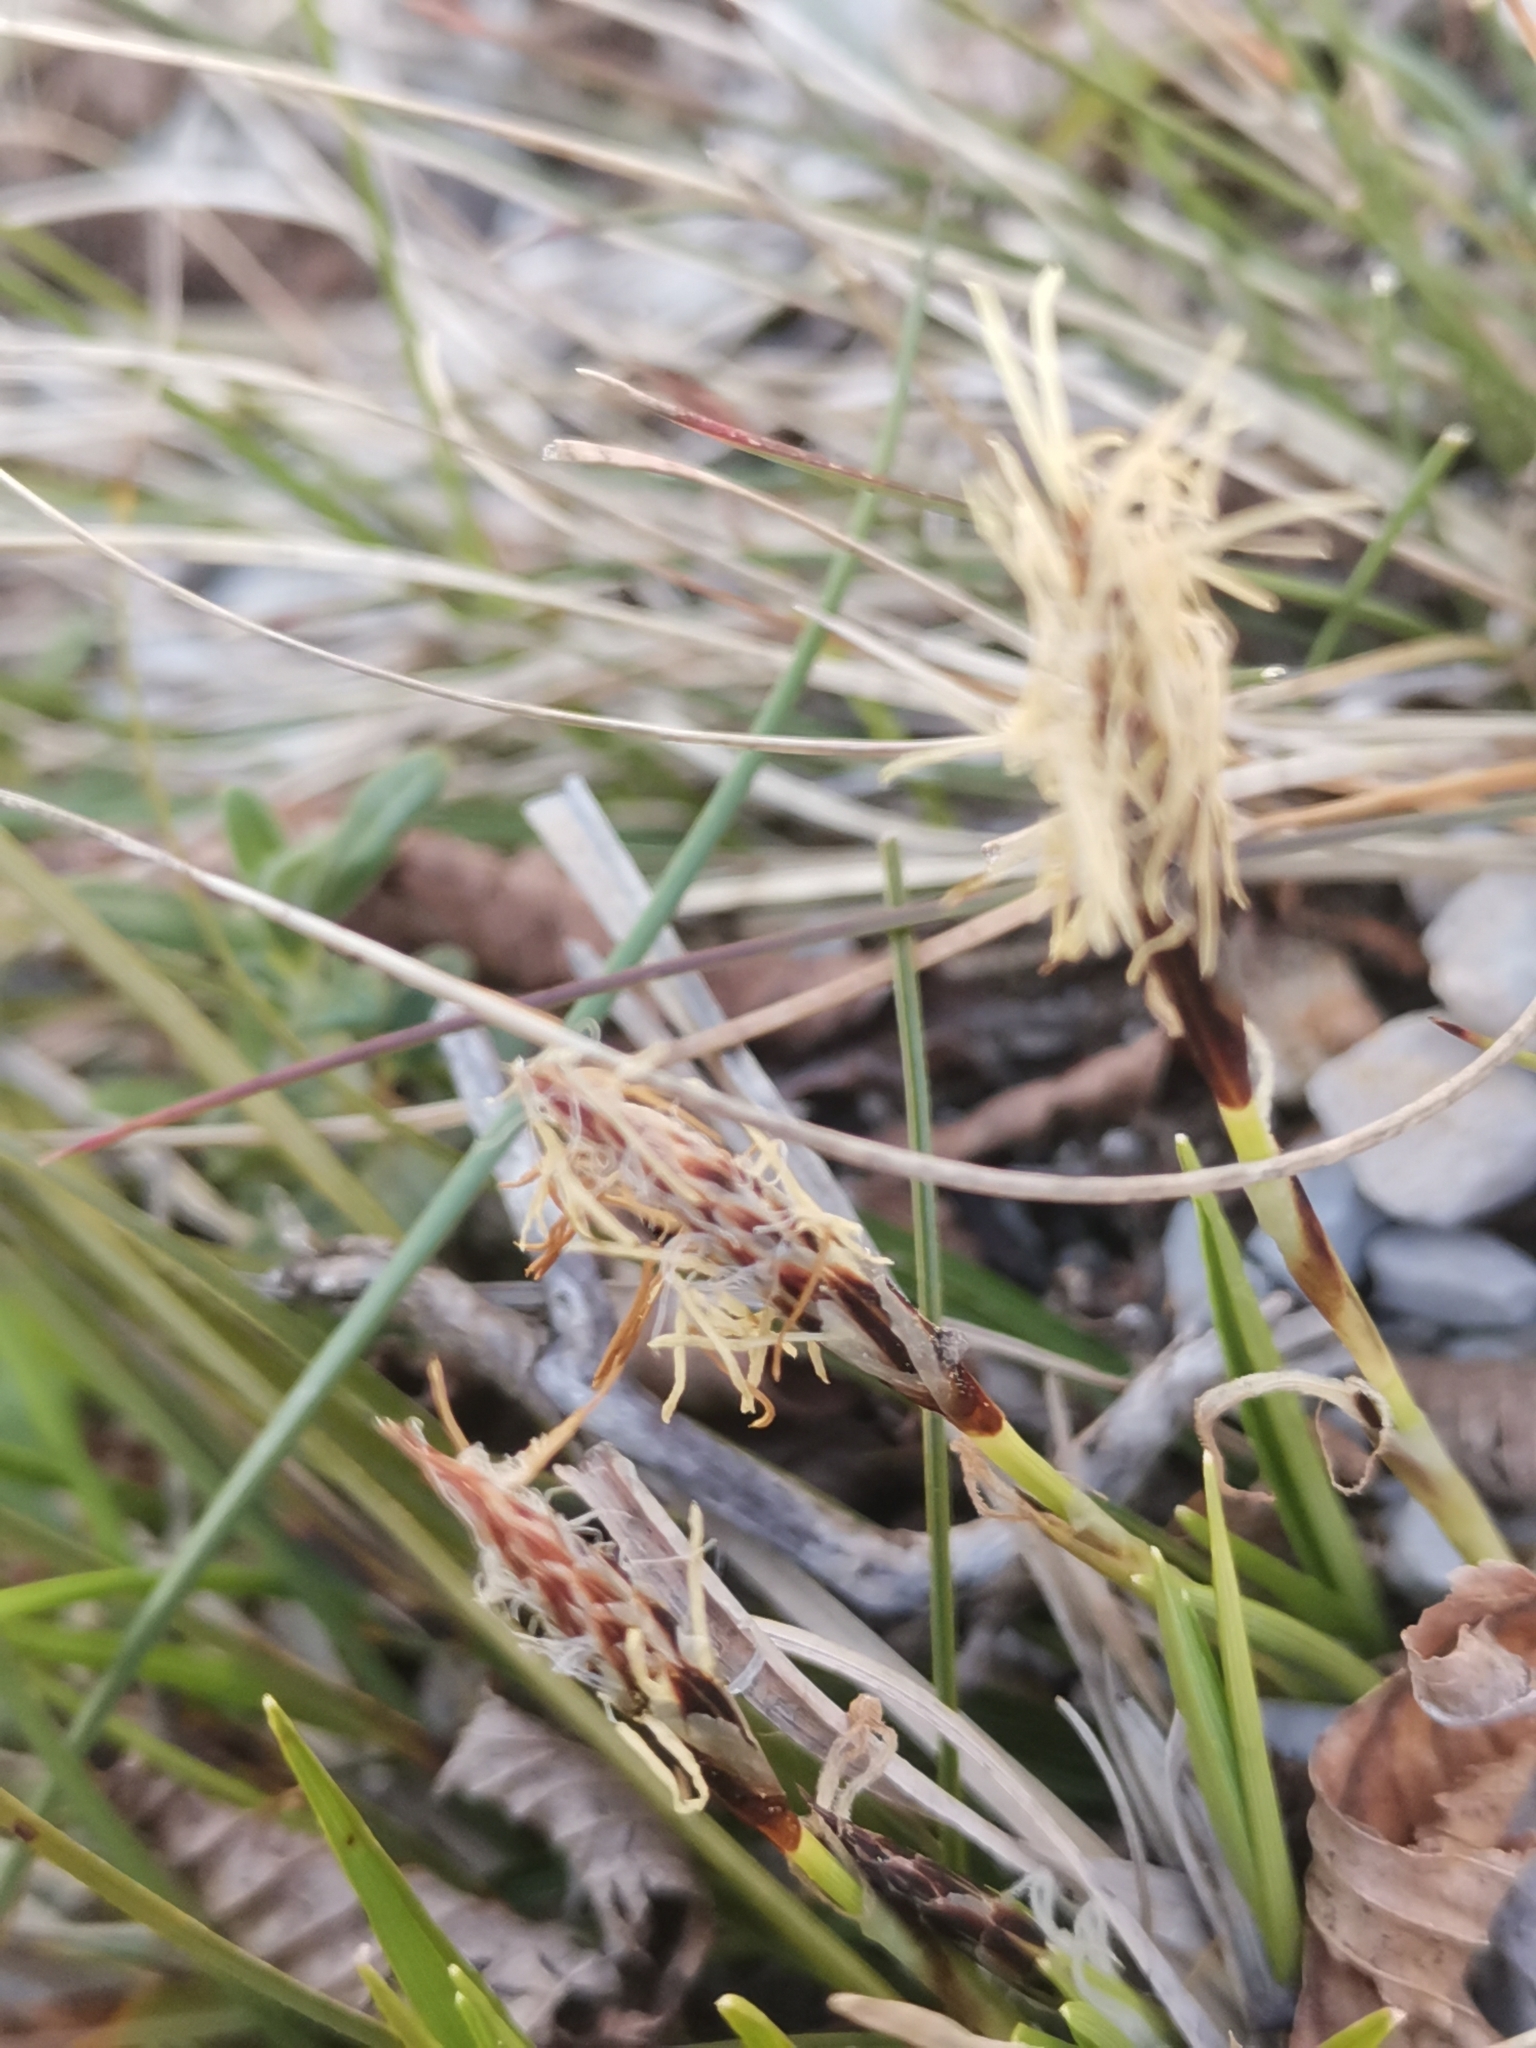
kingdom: Plantae
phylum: Tracheophyta
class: Liliopsida
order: Poales
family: Cyperaceae
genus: Carex
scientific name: Carex humilis
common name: Dwarf sedge
